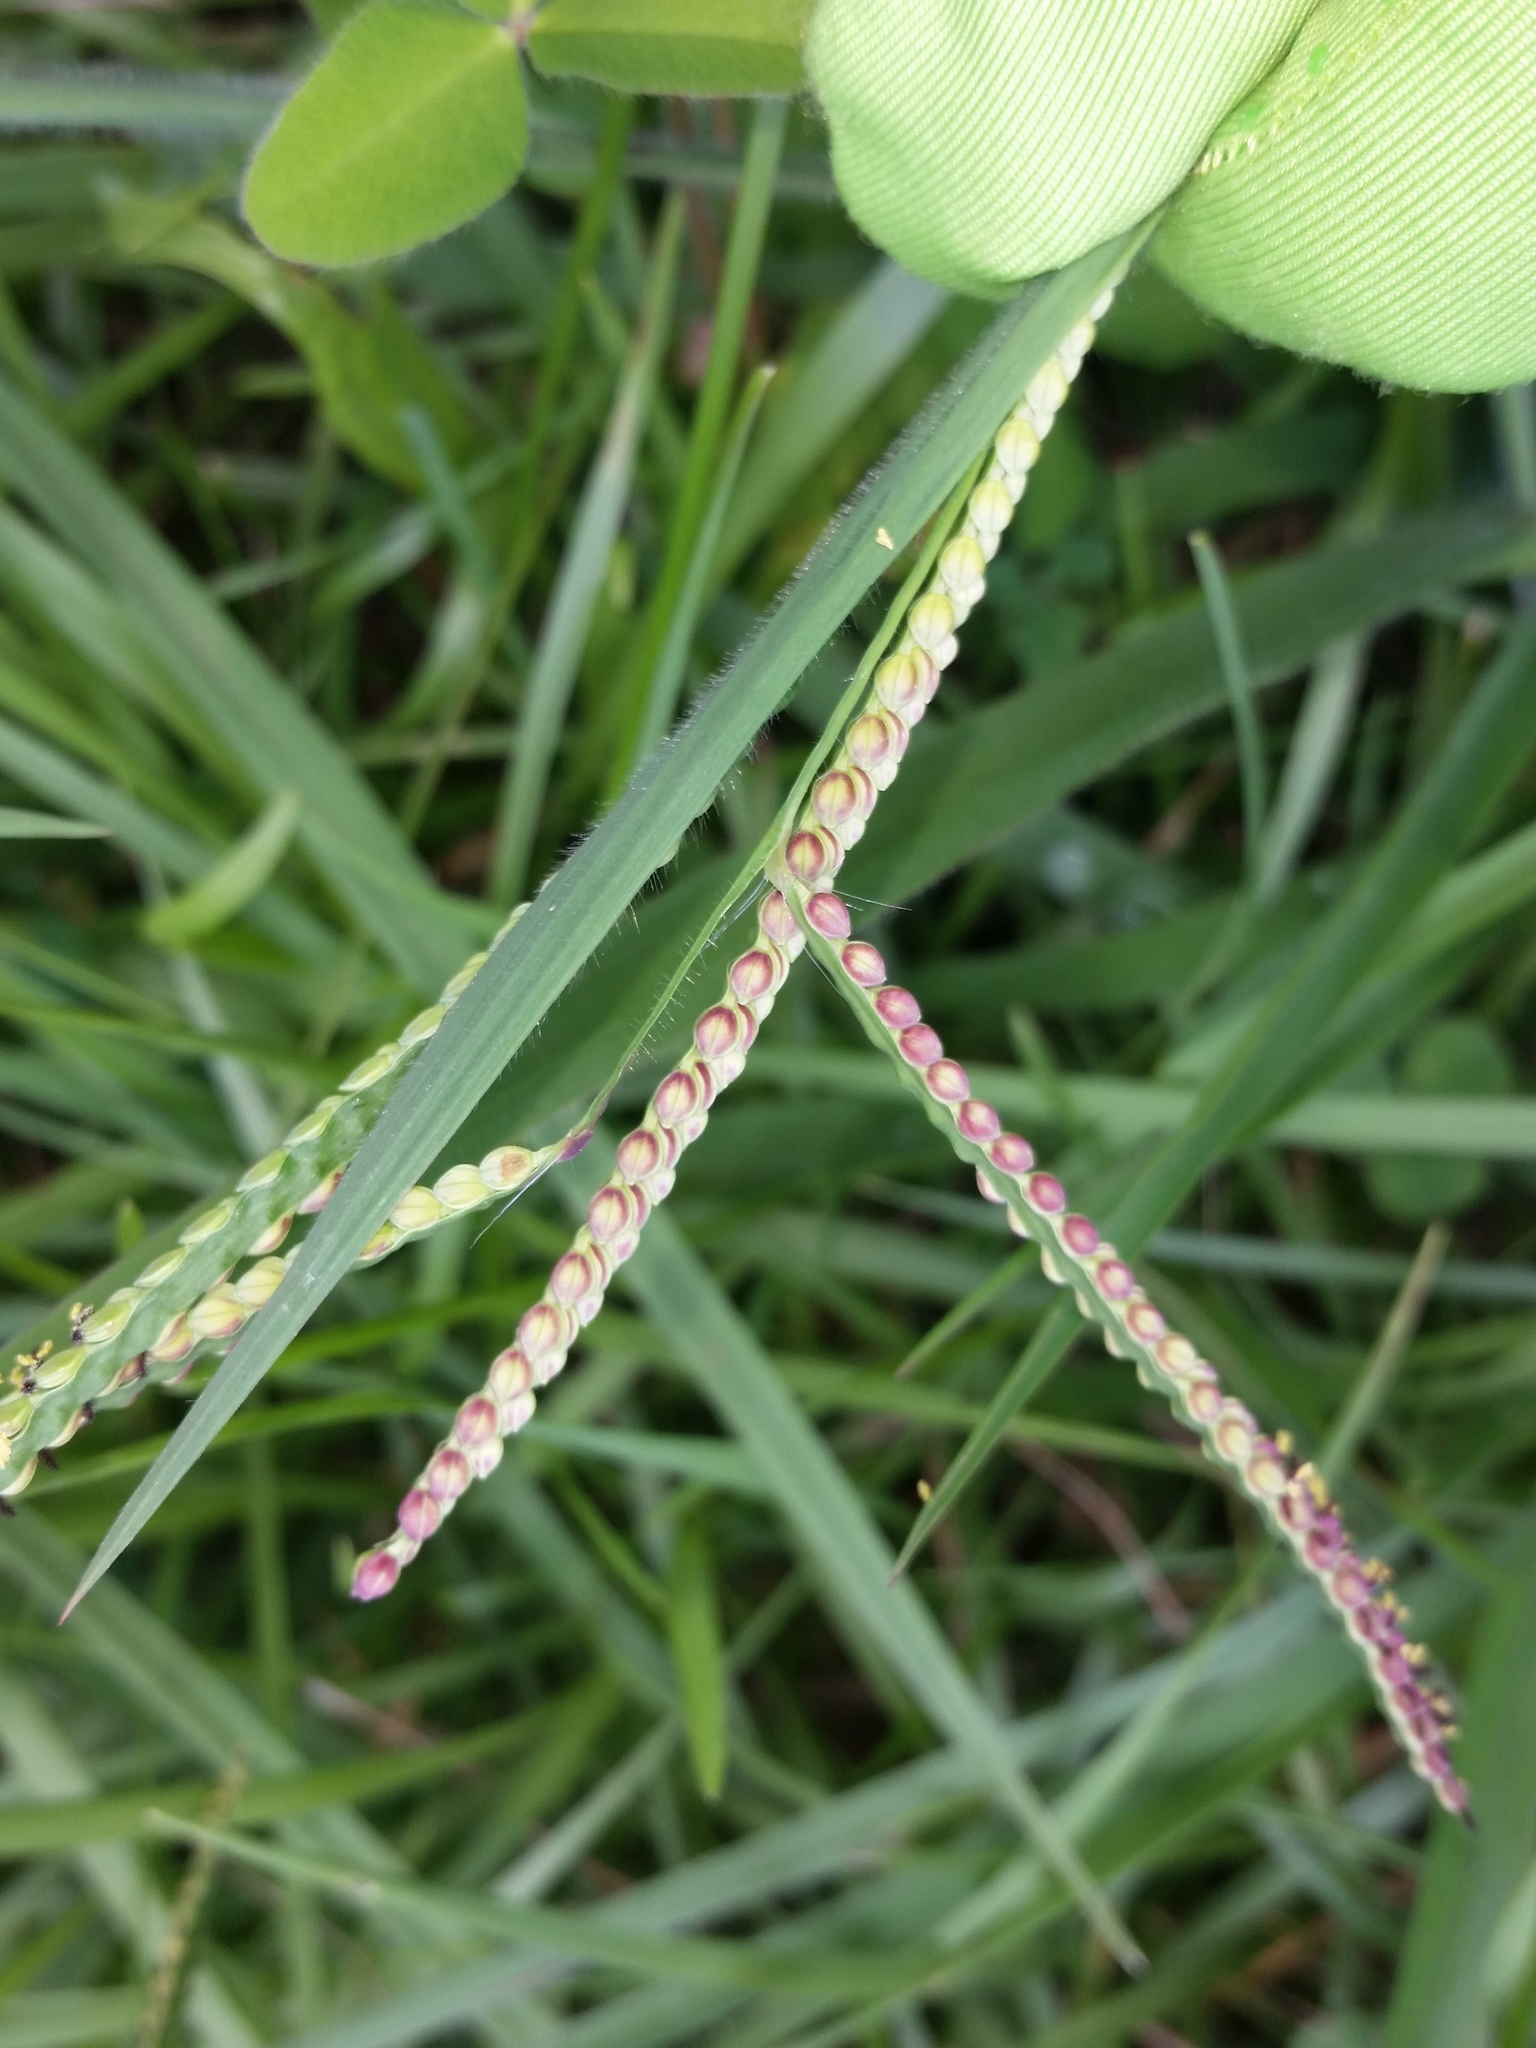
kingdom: Plantae
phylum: Tracheophyta
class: Liliopsida
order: Poales
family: Poaceae
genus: Paspalum
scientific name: Paspalum laeve
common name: Field paspalum
